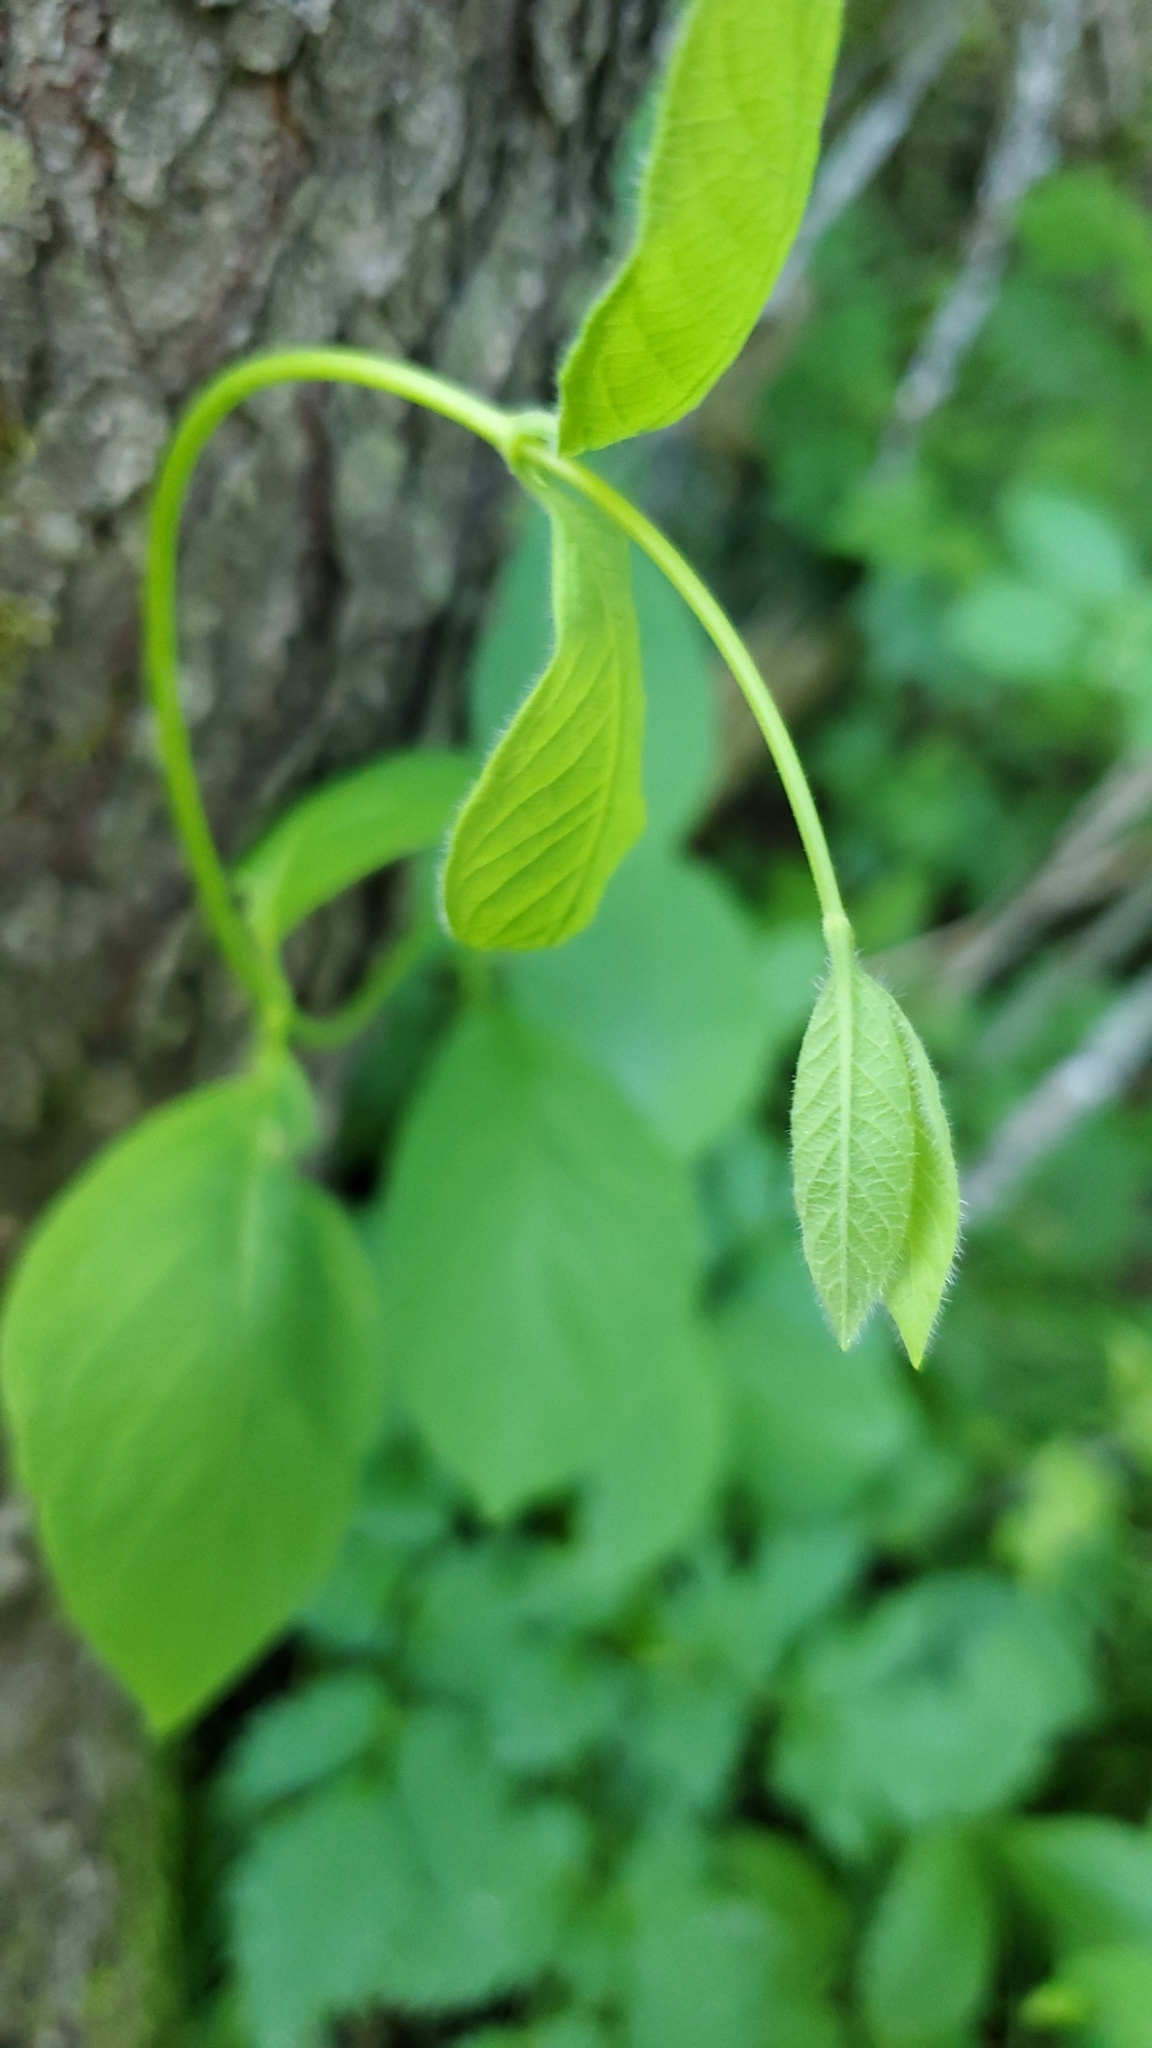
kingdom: Plantae
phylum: Tracheophyta
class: Magnoliopsida
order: Dipsacales
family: Caprifoliaceae
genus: Lonicera
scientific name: Lonicera hirsuta
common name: Hairy honeysuckle
